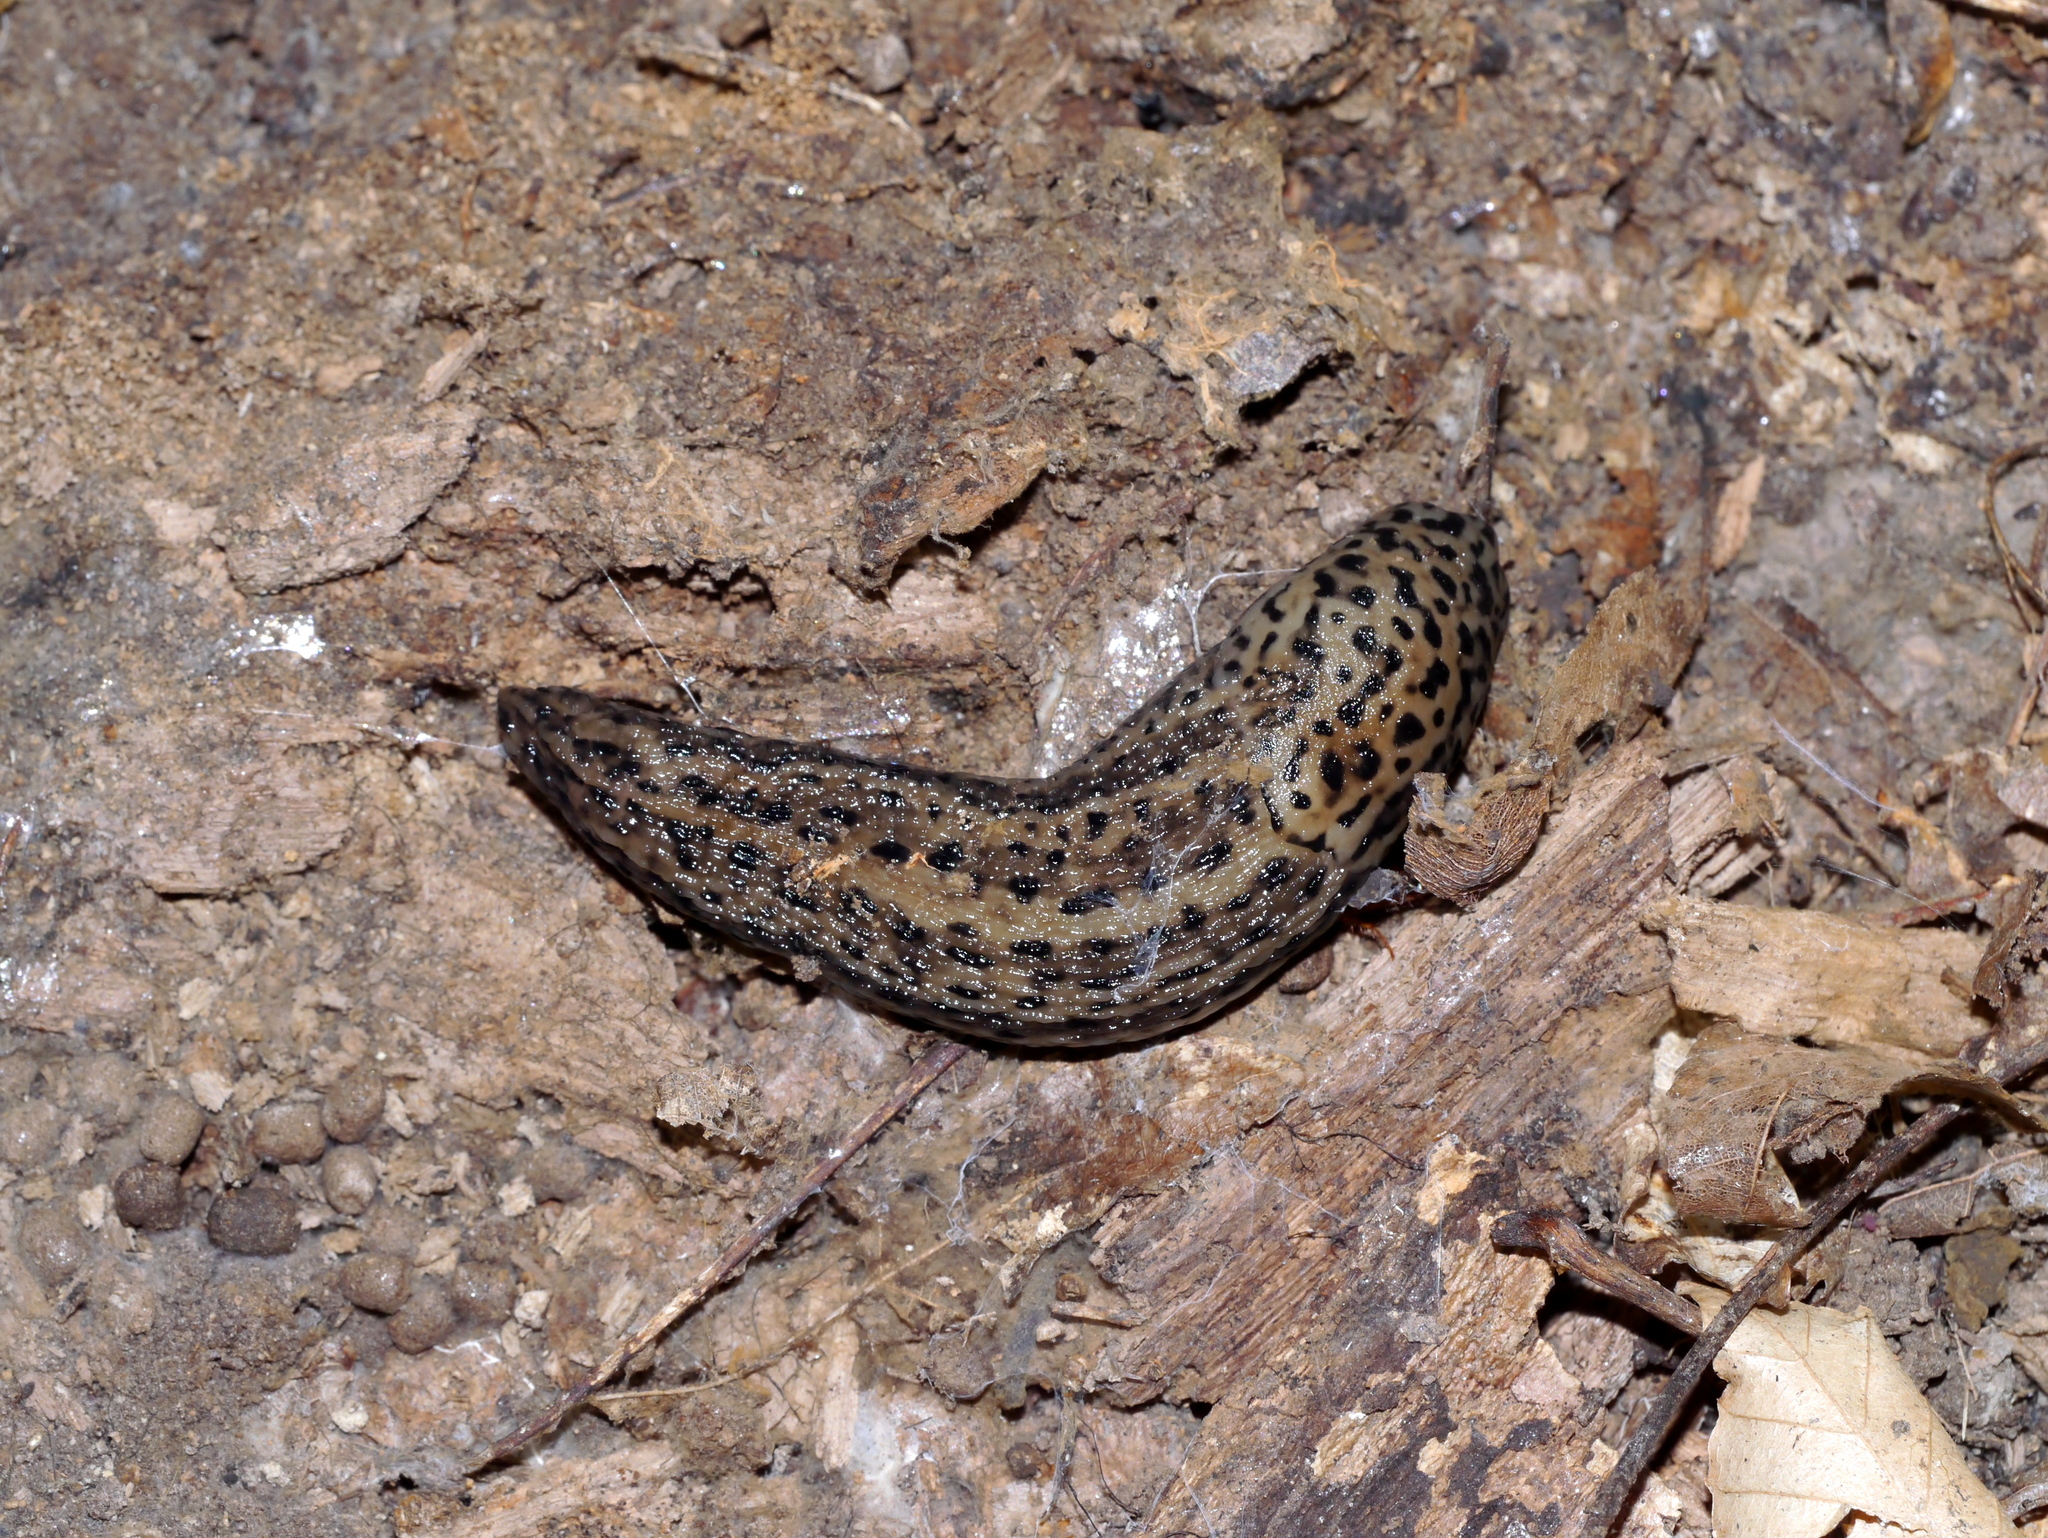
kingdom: Animalia
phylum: Mollusca
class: Gastropoda
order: Stylommatophora
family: Limacidae
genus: Limax
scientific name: Limax maximus
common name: Great grey slug
